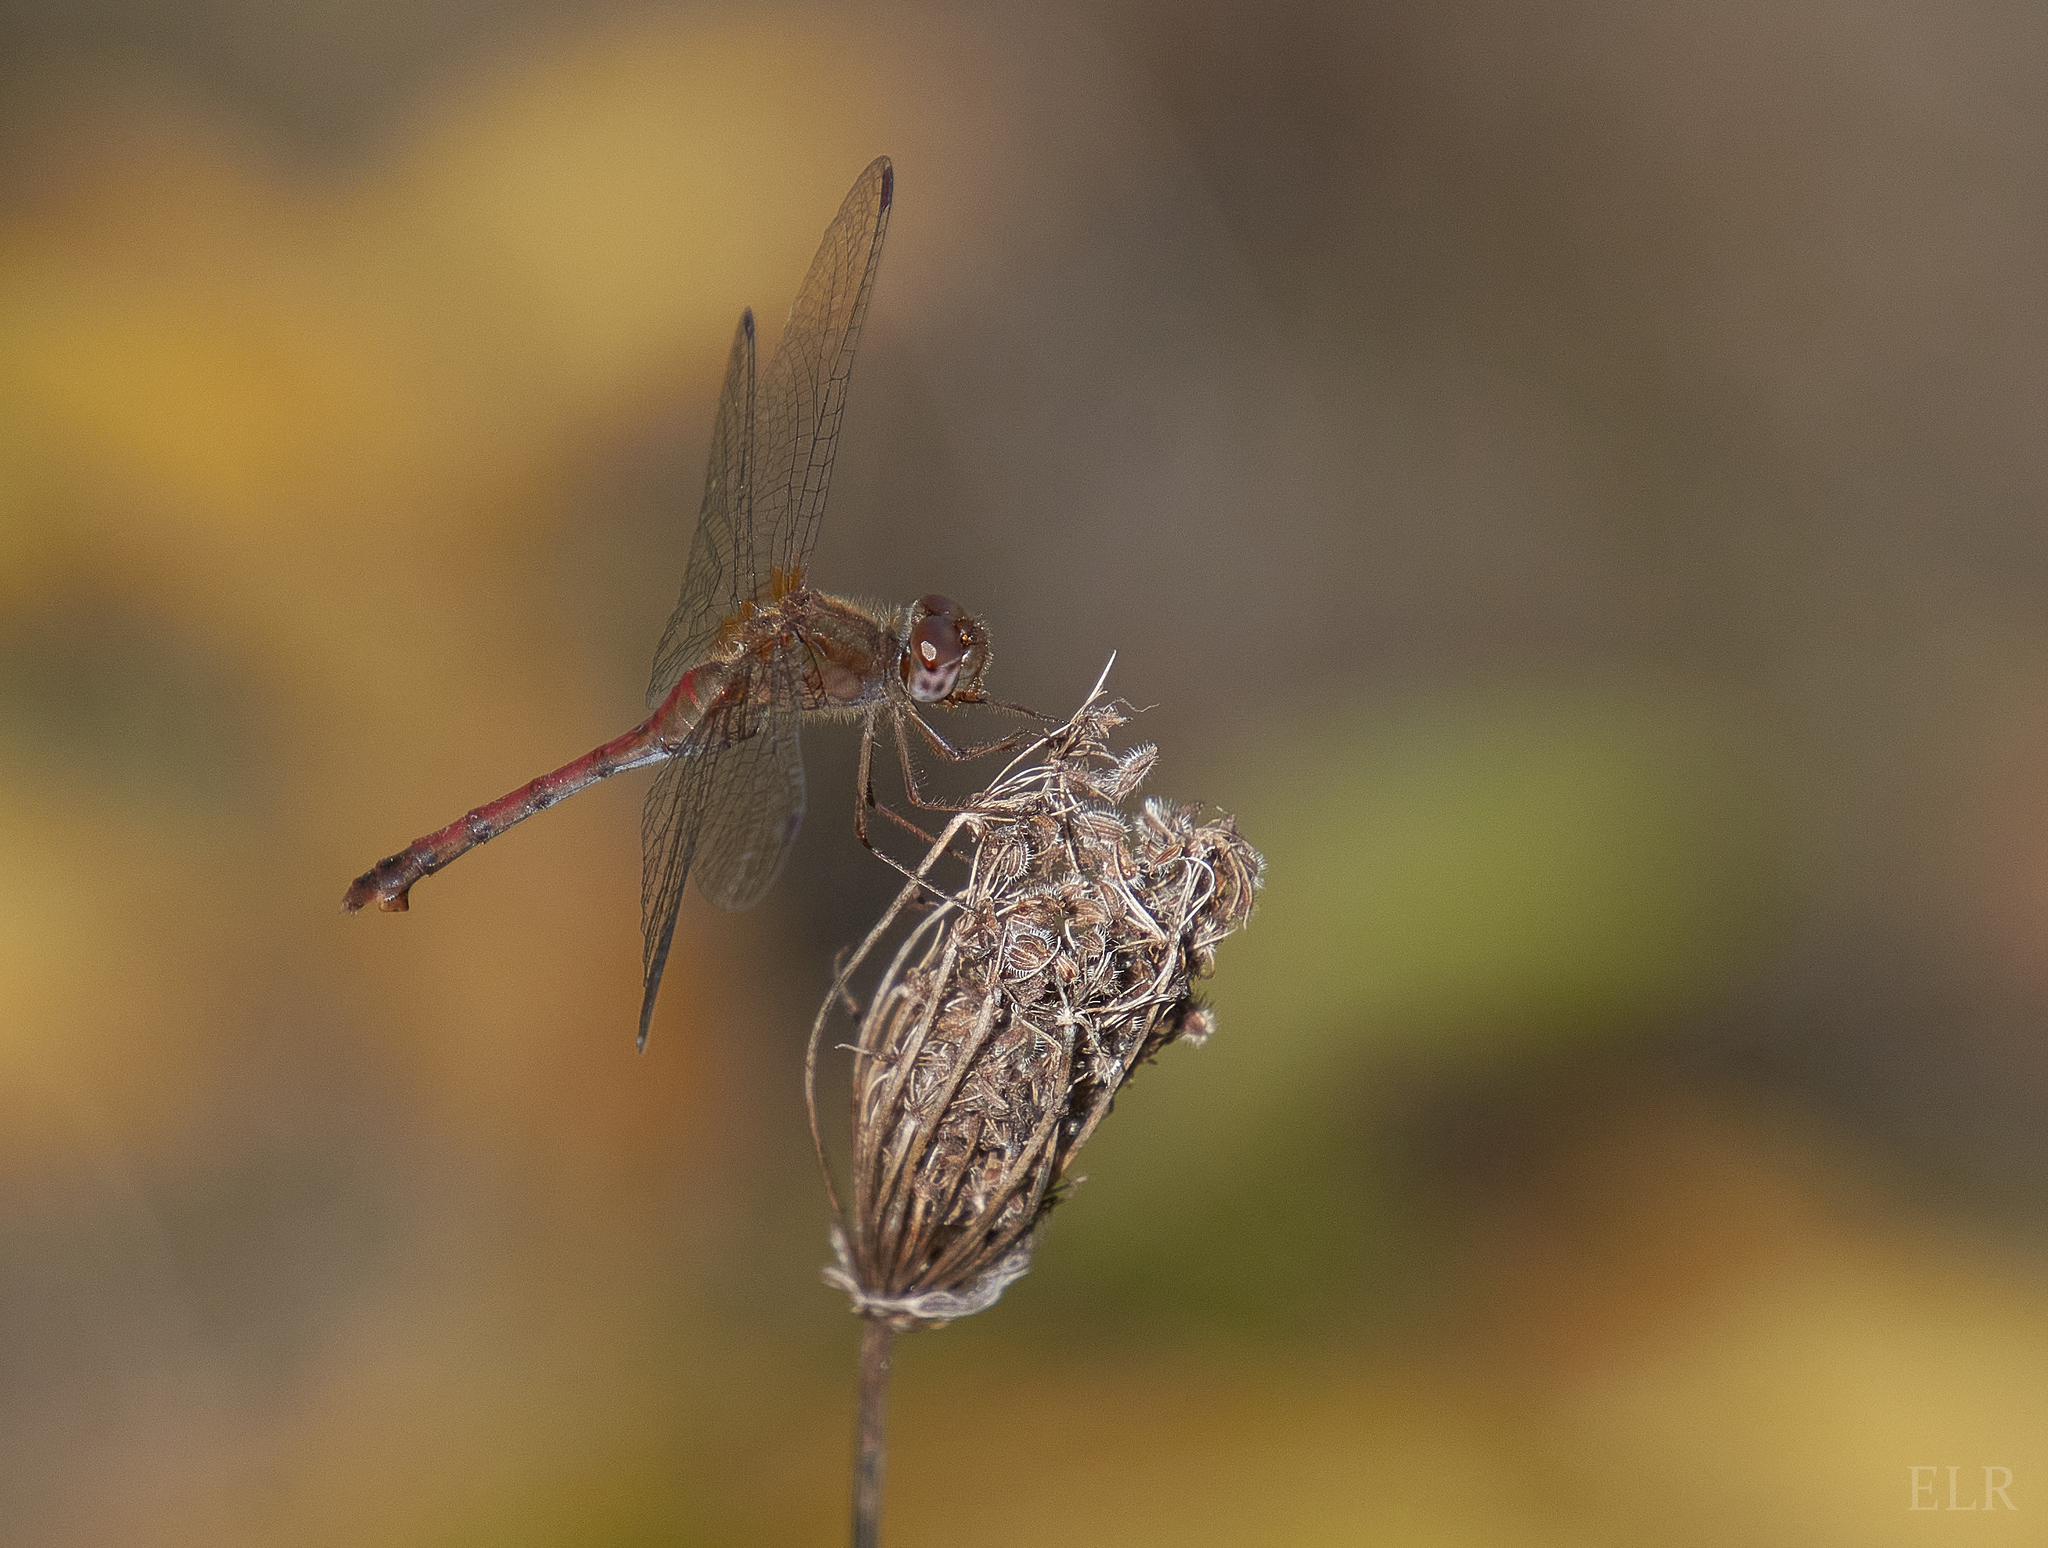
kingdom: Animalia
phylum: Arthropoda
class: Insecta
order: Odonata
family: Libellulidae
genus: Sympetrum
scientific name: Sympetrum vicinum
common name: Autumn meadowhawk
